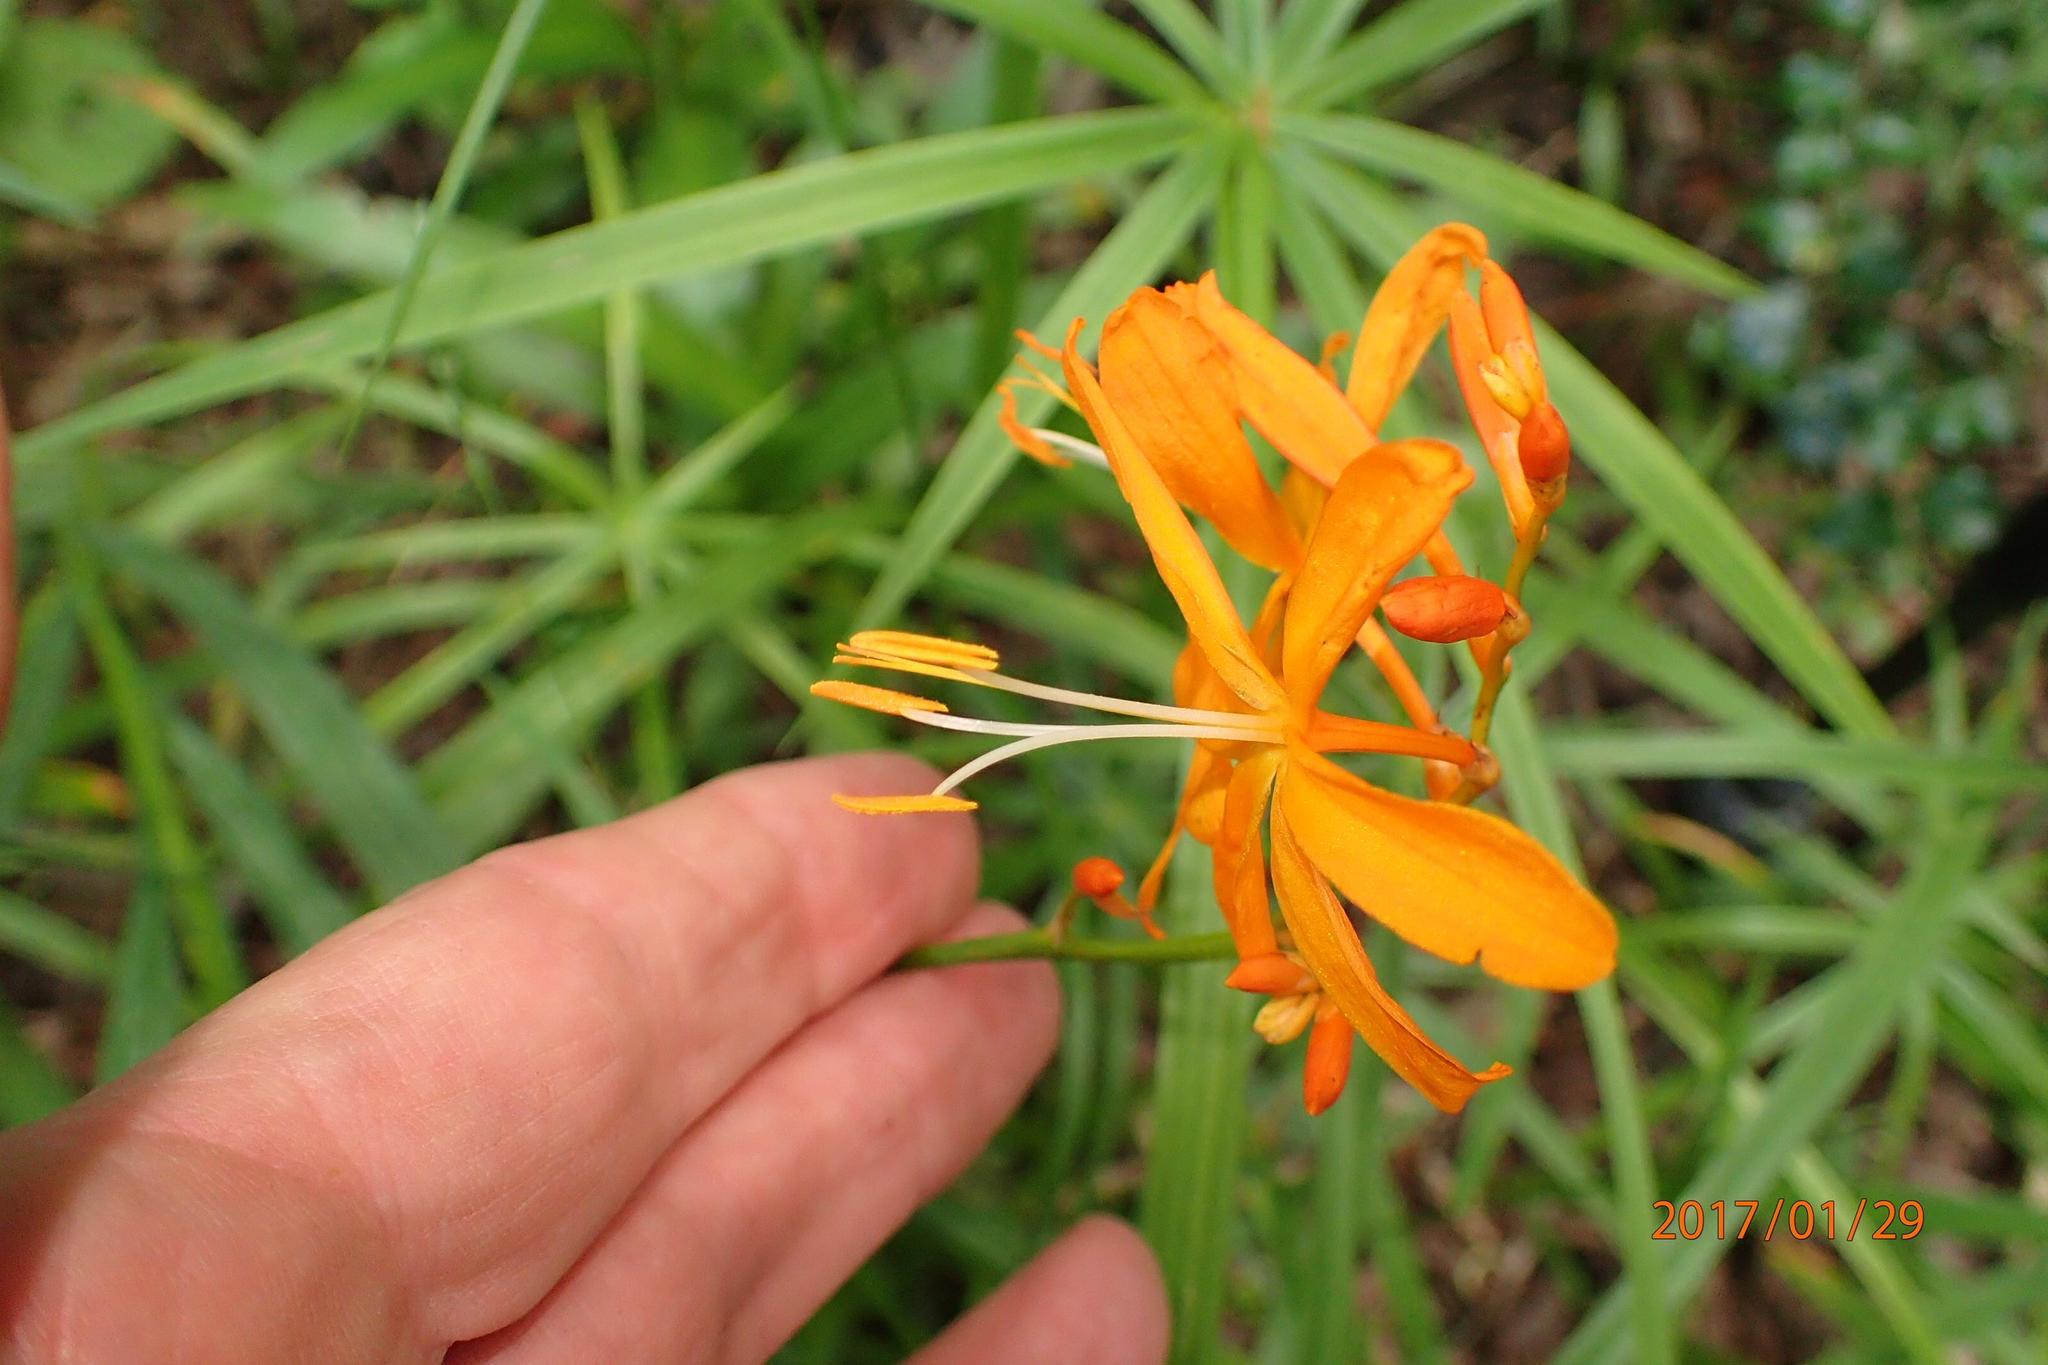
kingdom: Plantae
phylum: Tracheophyta
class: Liliopsida
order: Asparagales
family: Iridaceae
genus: Crocosmia
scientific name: Crocosmia aurea
